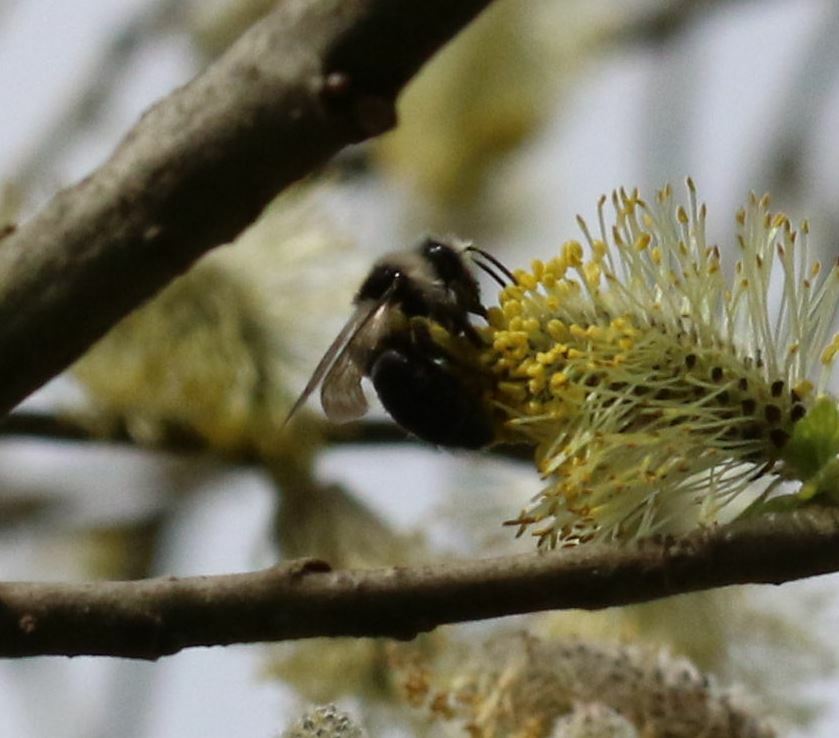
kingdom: Animalia
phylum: Arthropoda
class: Insecta
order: Hymenoptera
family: Andrenidae
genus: Andrena
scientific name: Andrena cineraria
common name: Ashy mining bee
